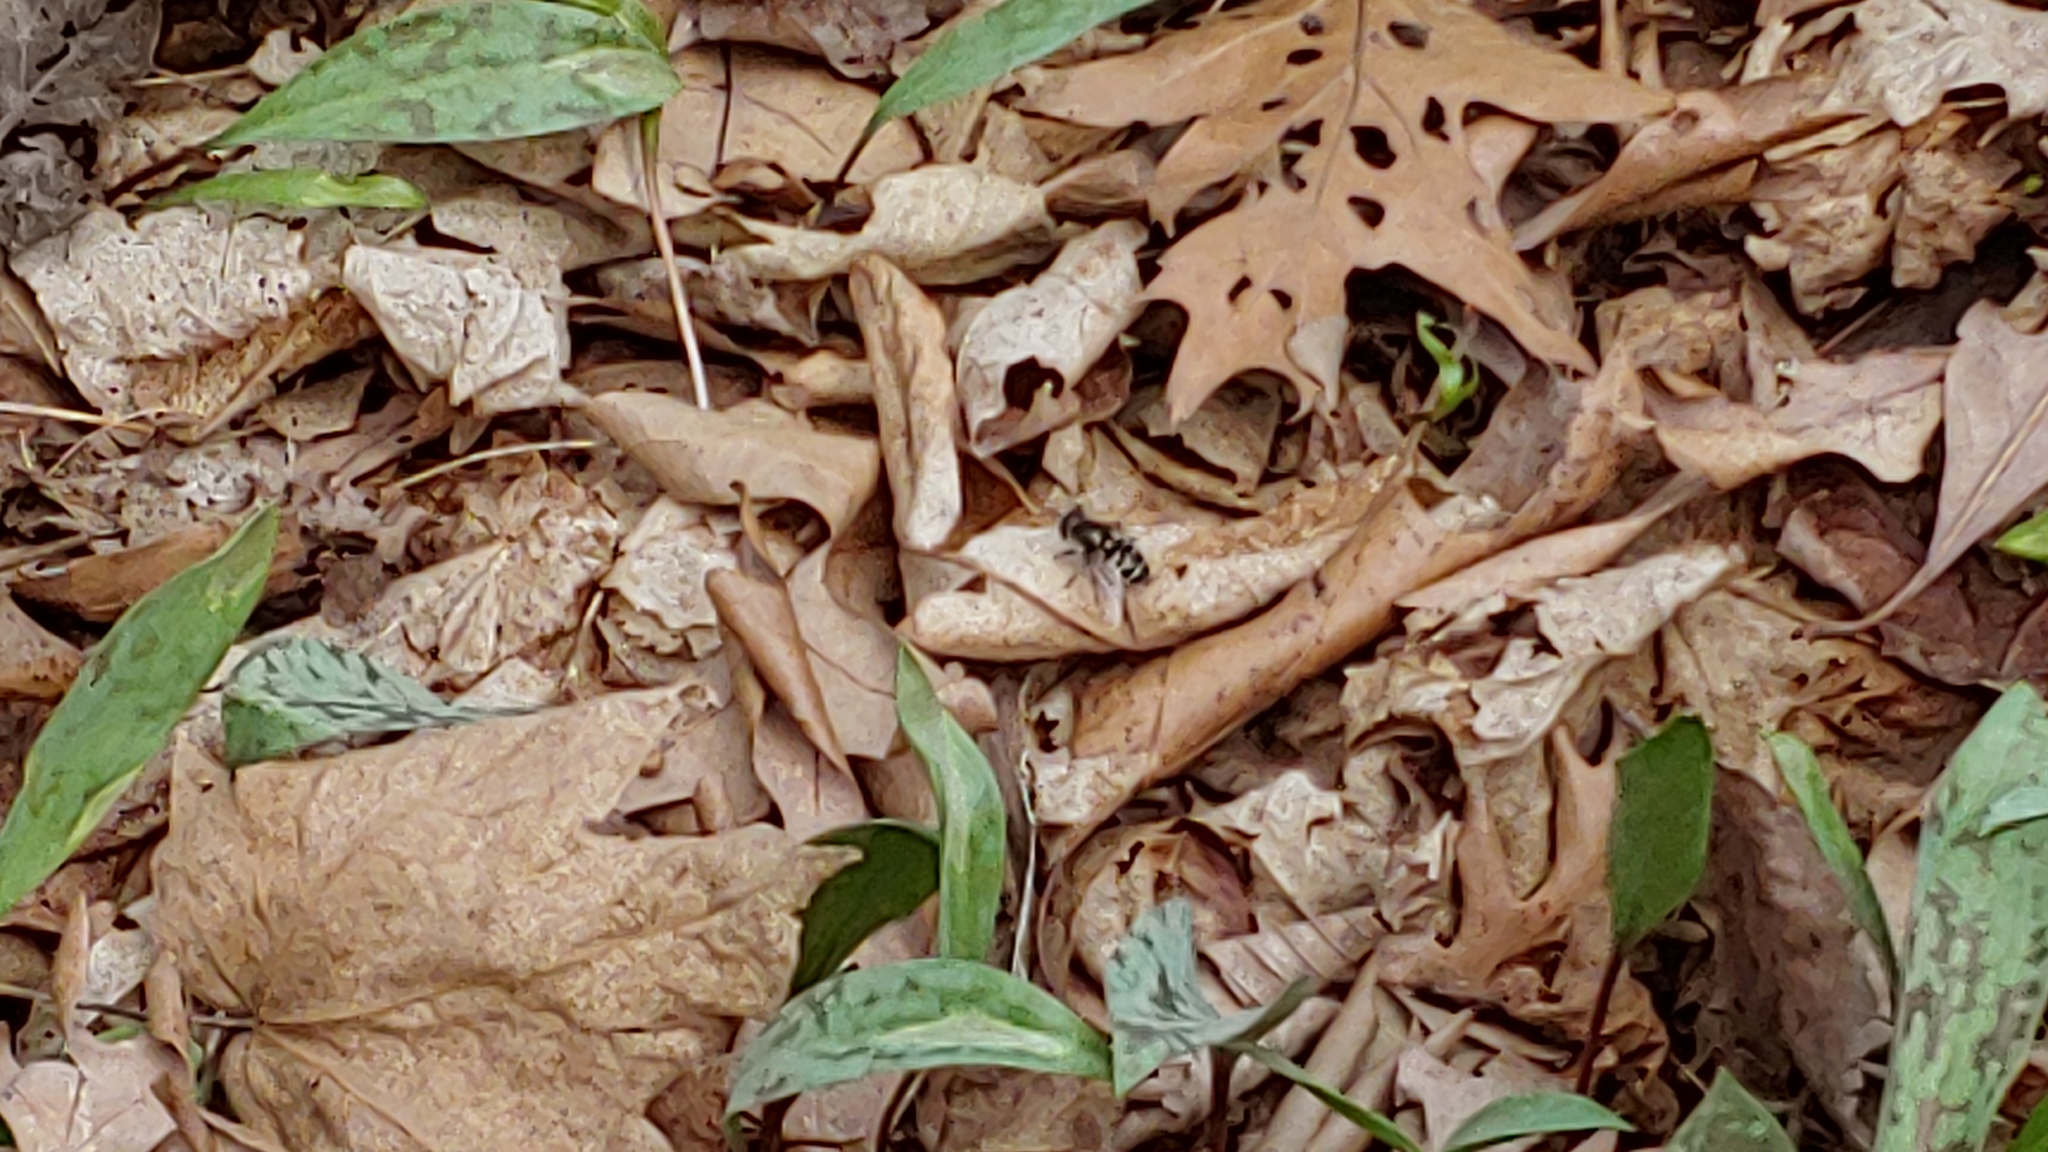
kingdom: Animalia
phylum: Arthropoda
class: Insecta
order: Diptera
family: Syrphidae
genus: Eristalis
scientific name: Eristalis dimidiata
